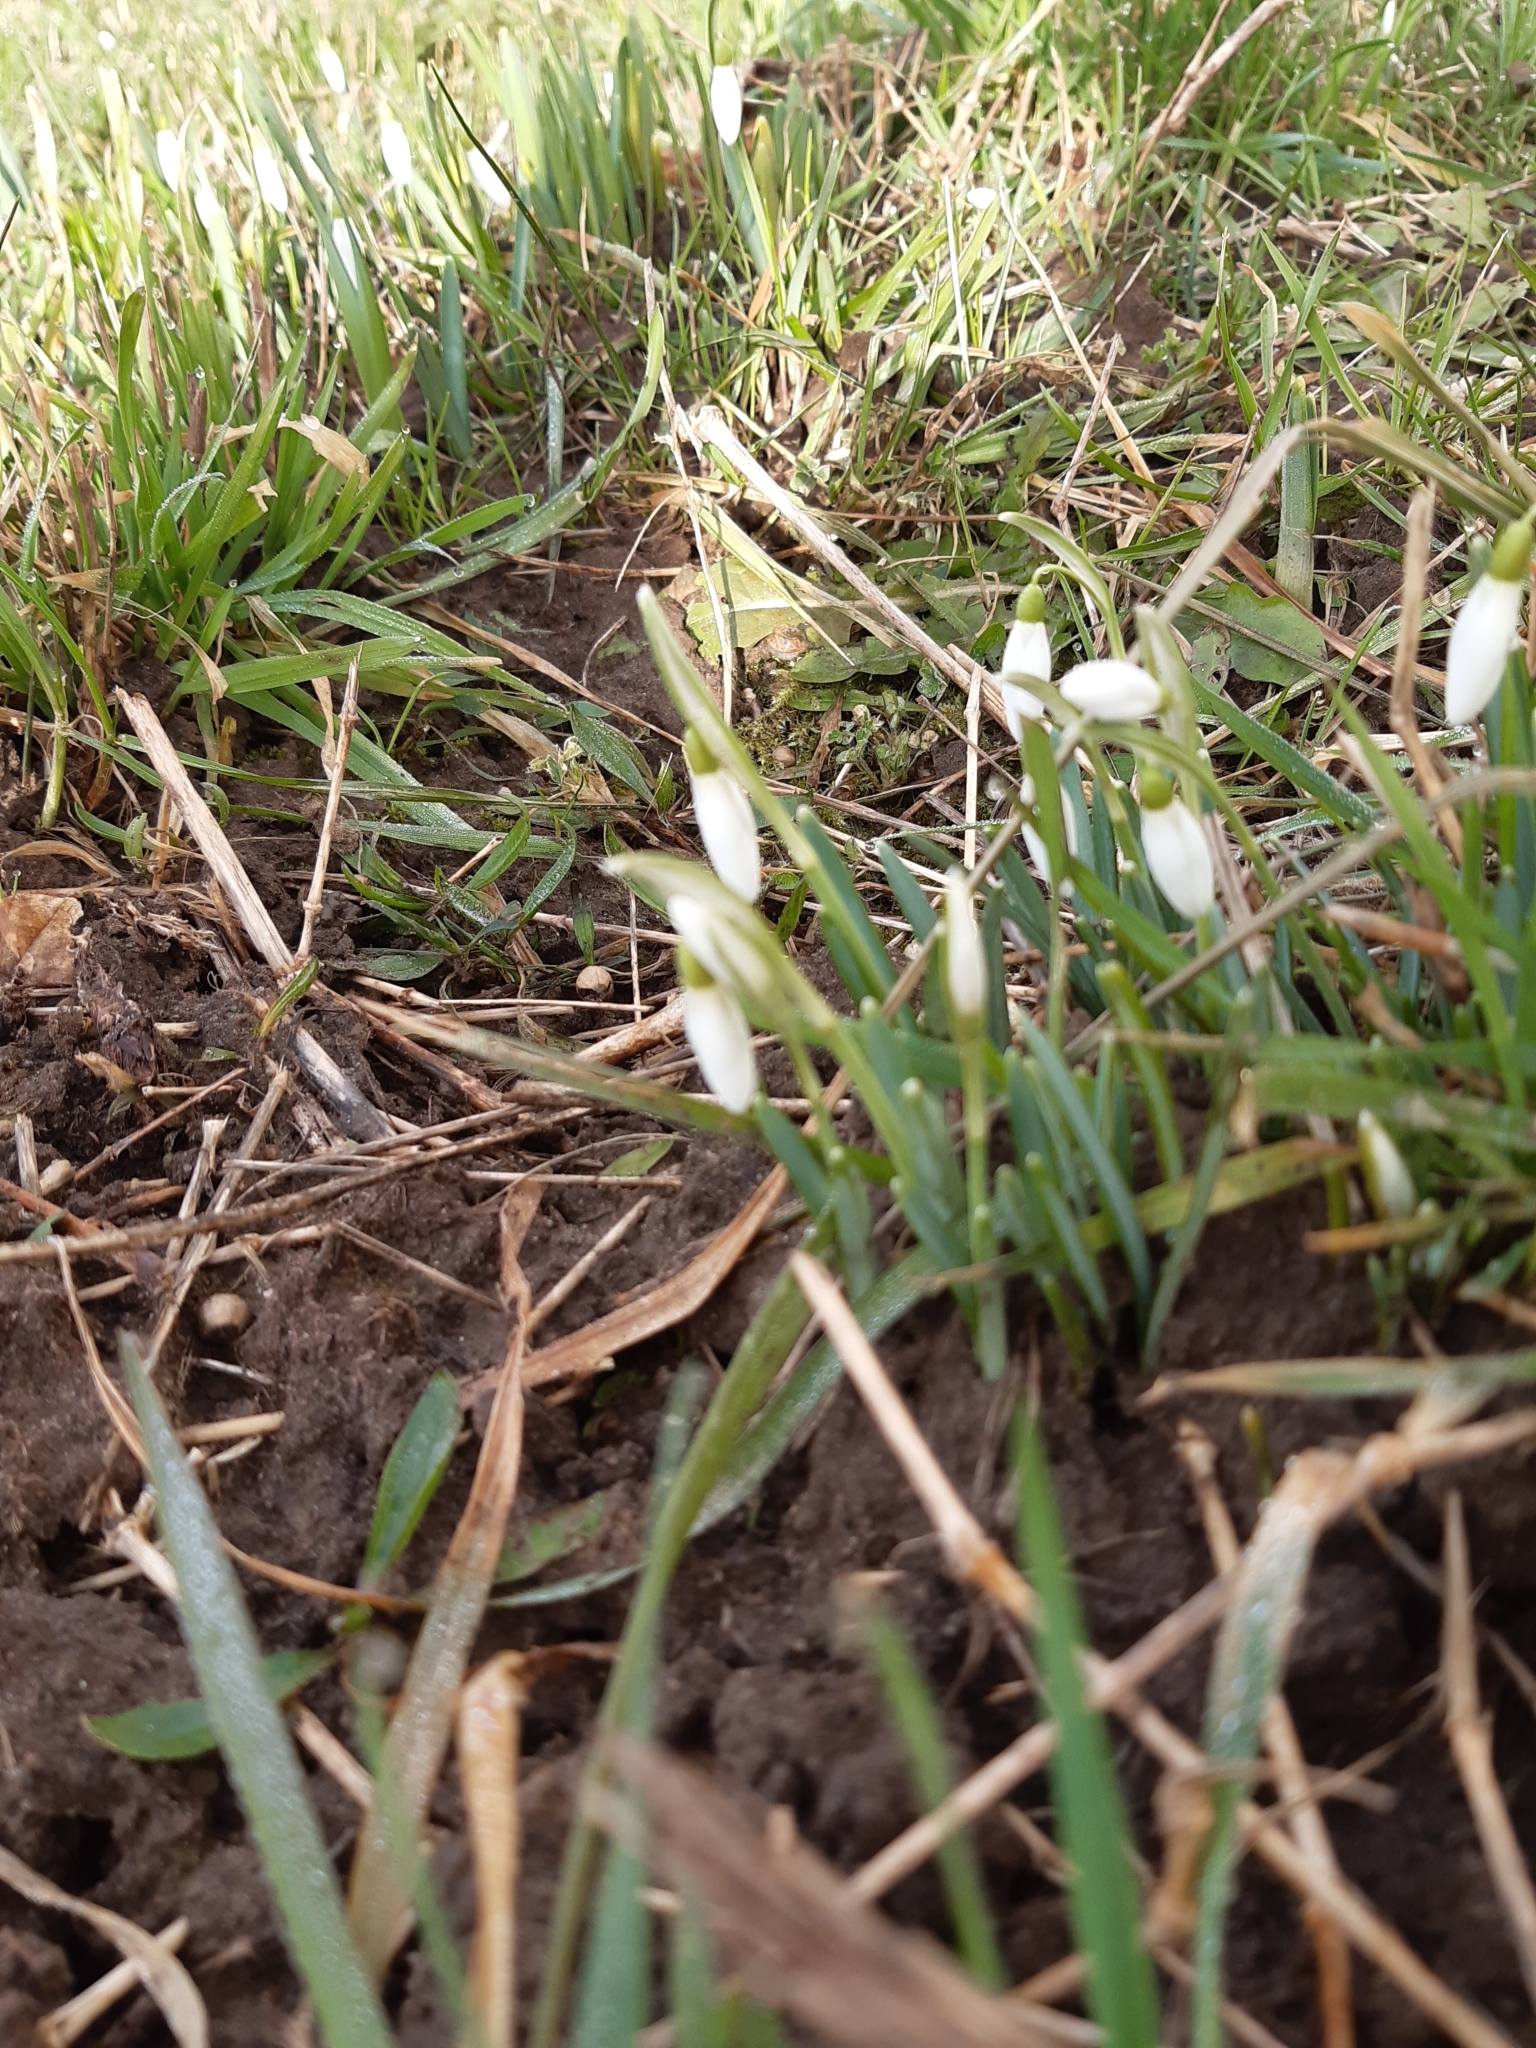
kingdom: Plantae
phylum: Tracheophyta
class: Liliopsida
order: Asparagales
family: Amaryllidaceae
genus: Galanthus
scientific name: Galanthus nivalis
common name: Snowdrop
